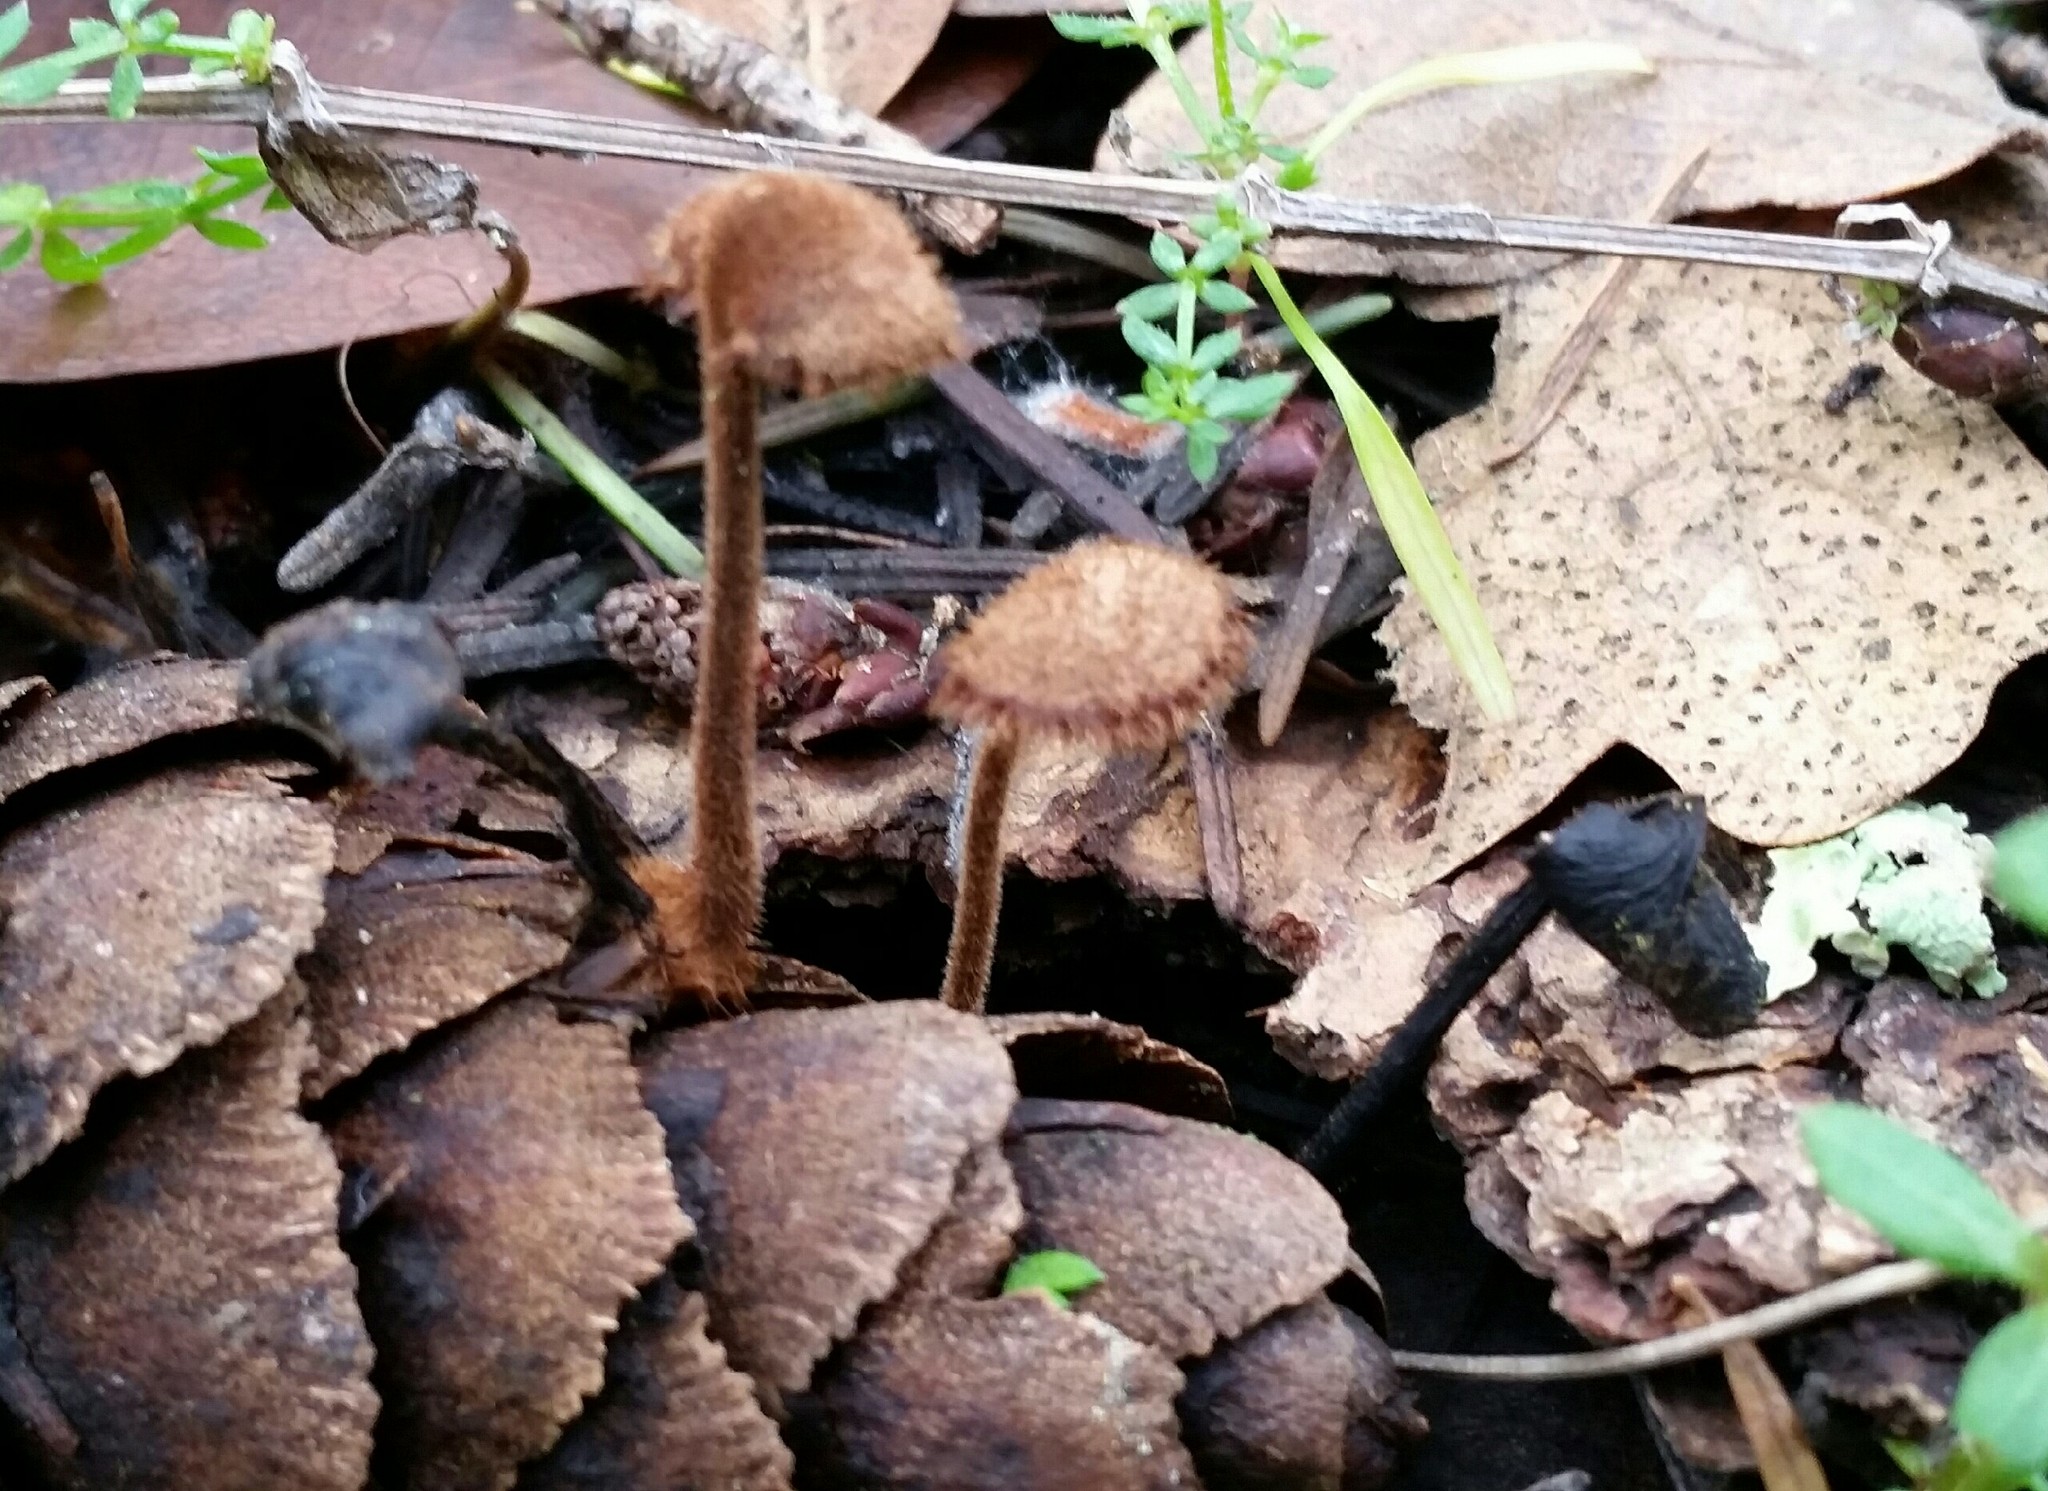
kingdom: Fungi
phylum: Basidiomycota
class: Agaricomycetes
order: Russulales
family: Auriscalpiaceae
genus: Auriscalpium
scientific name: Auriscalpium vulgare
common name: Earpick fungus
